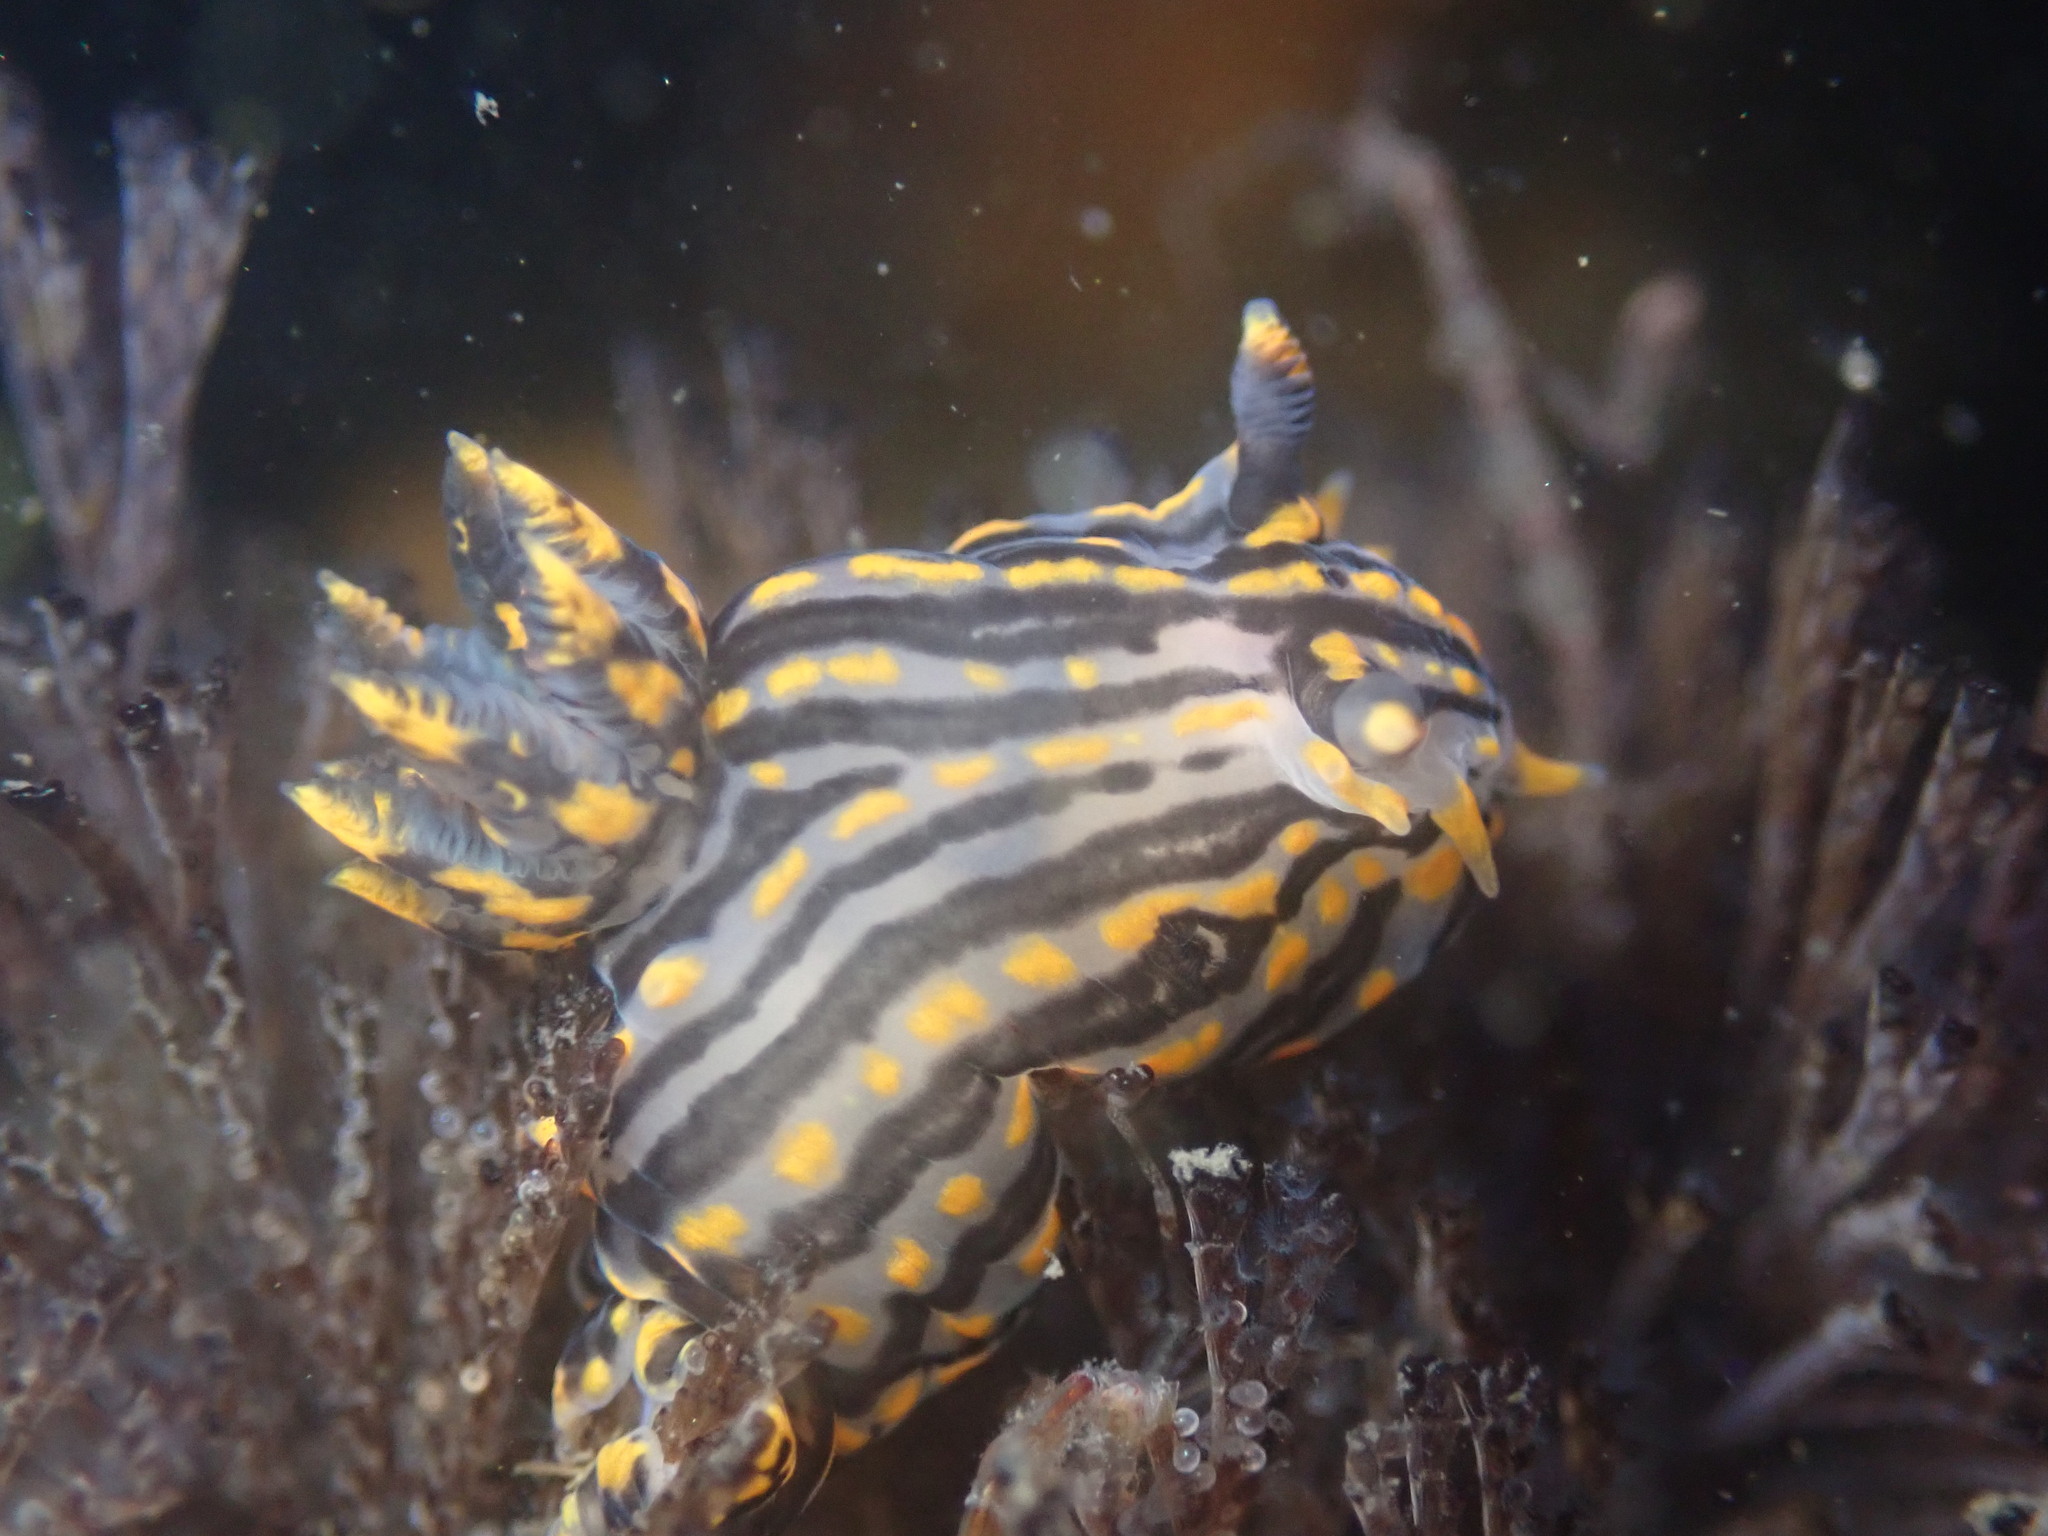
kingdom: Animalia
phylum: Mollusca
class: Gastropoda
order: Nudibranchia
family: Polyceridae
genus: Polycera
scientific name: Polycera atra
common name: Orange-spike polycera
